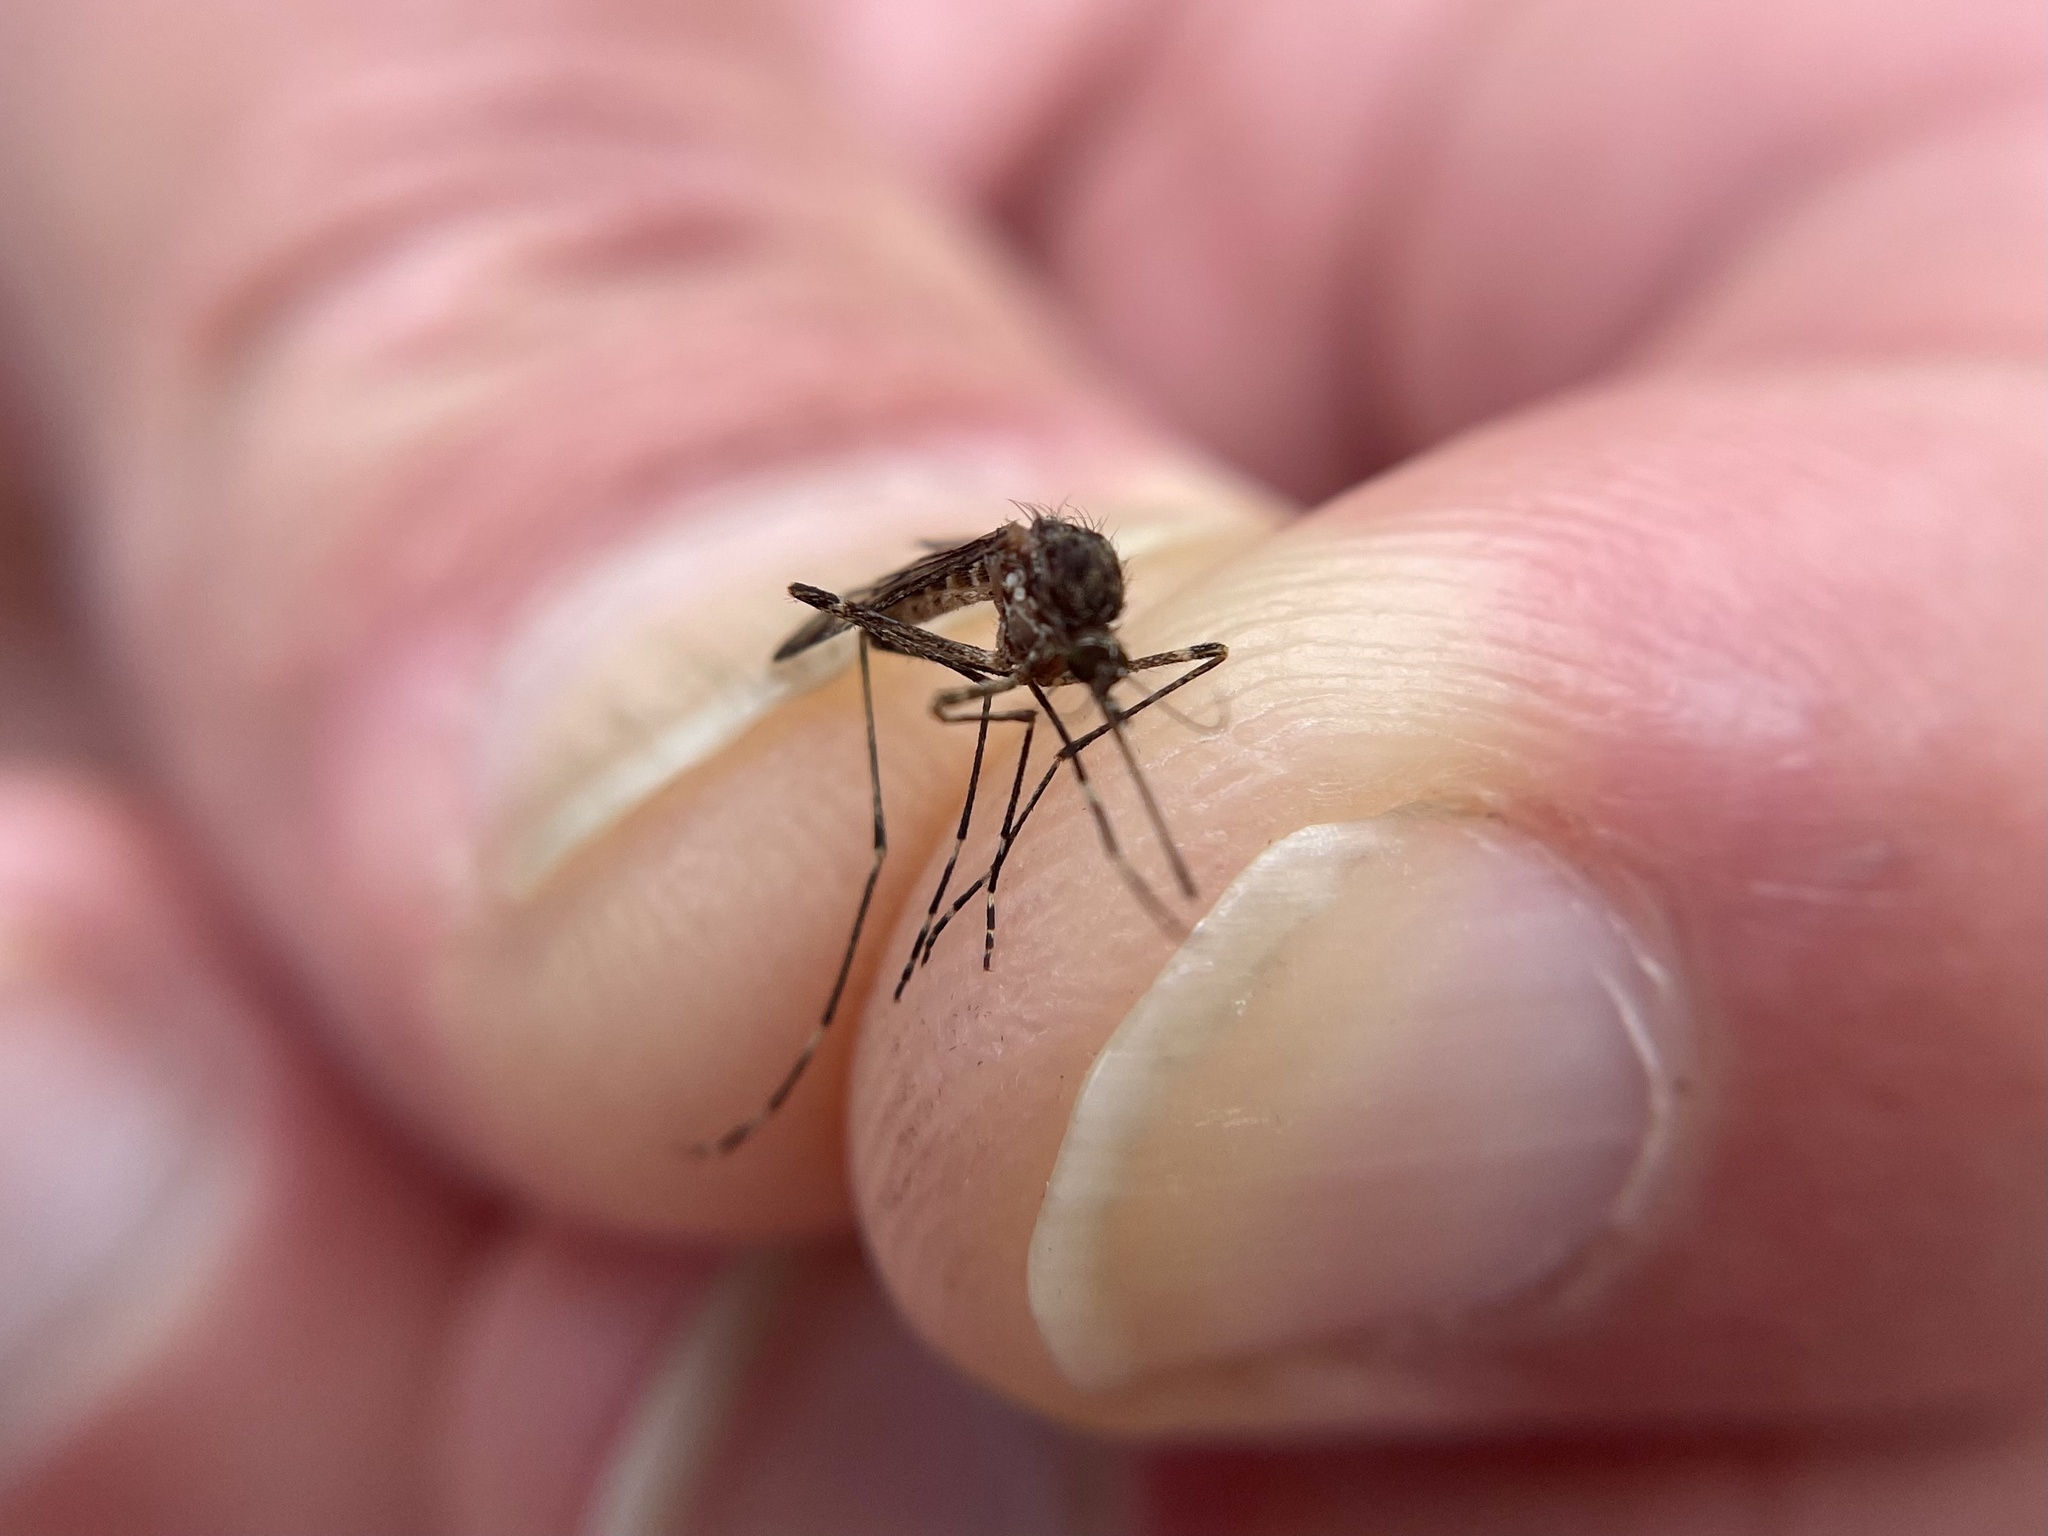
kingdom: Animalia
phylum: Arthropoda
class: Insecta
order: Diptera
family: Culicidae
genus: Culiseta
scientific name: Culiseta particeps
